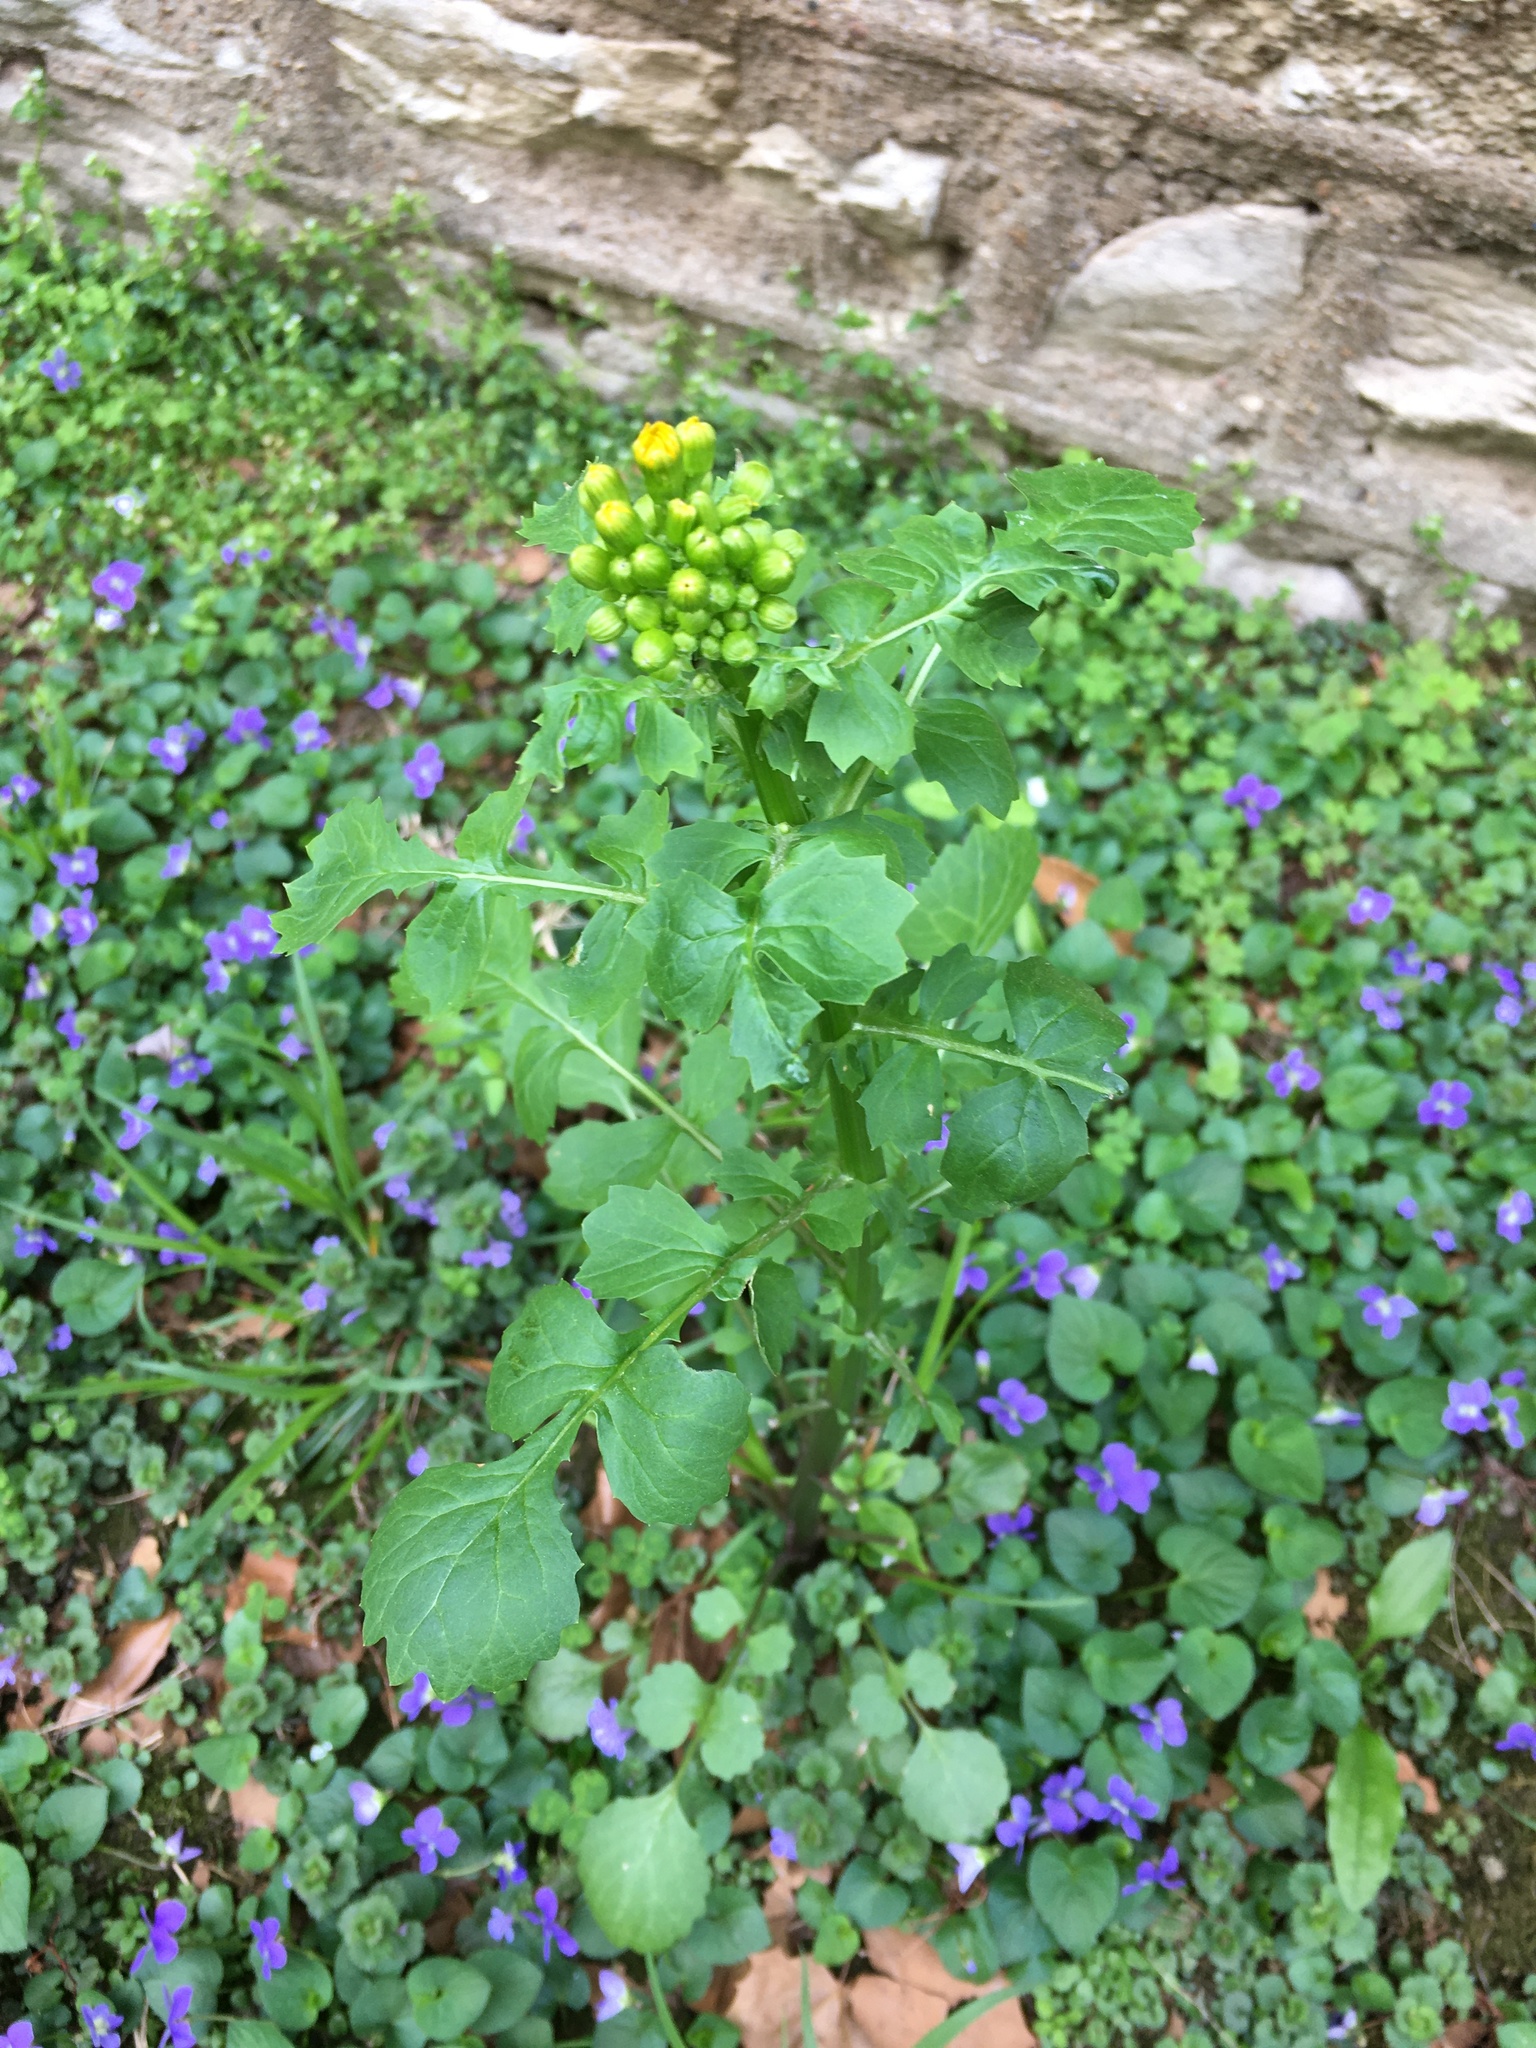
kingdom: Plantae
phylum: Tracheophyta
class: Magnoliopsida
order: Asterales
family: Asteraceae
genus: Packera
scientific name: Packera glabella
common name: Butterweed
